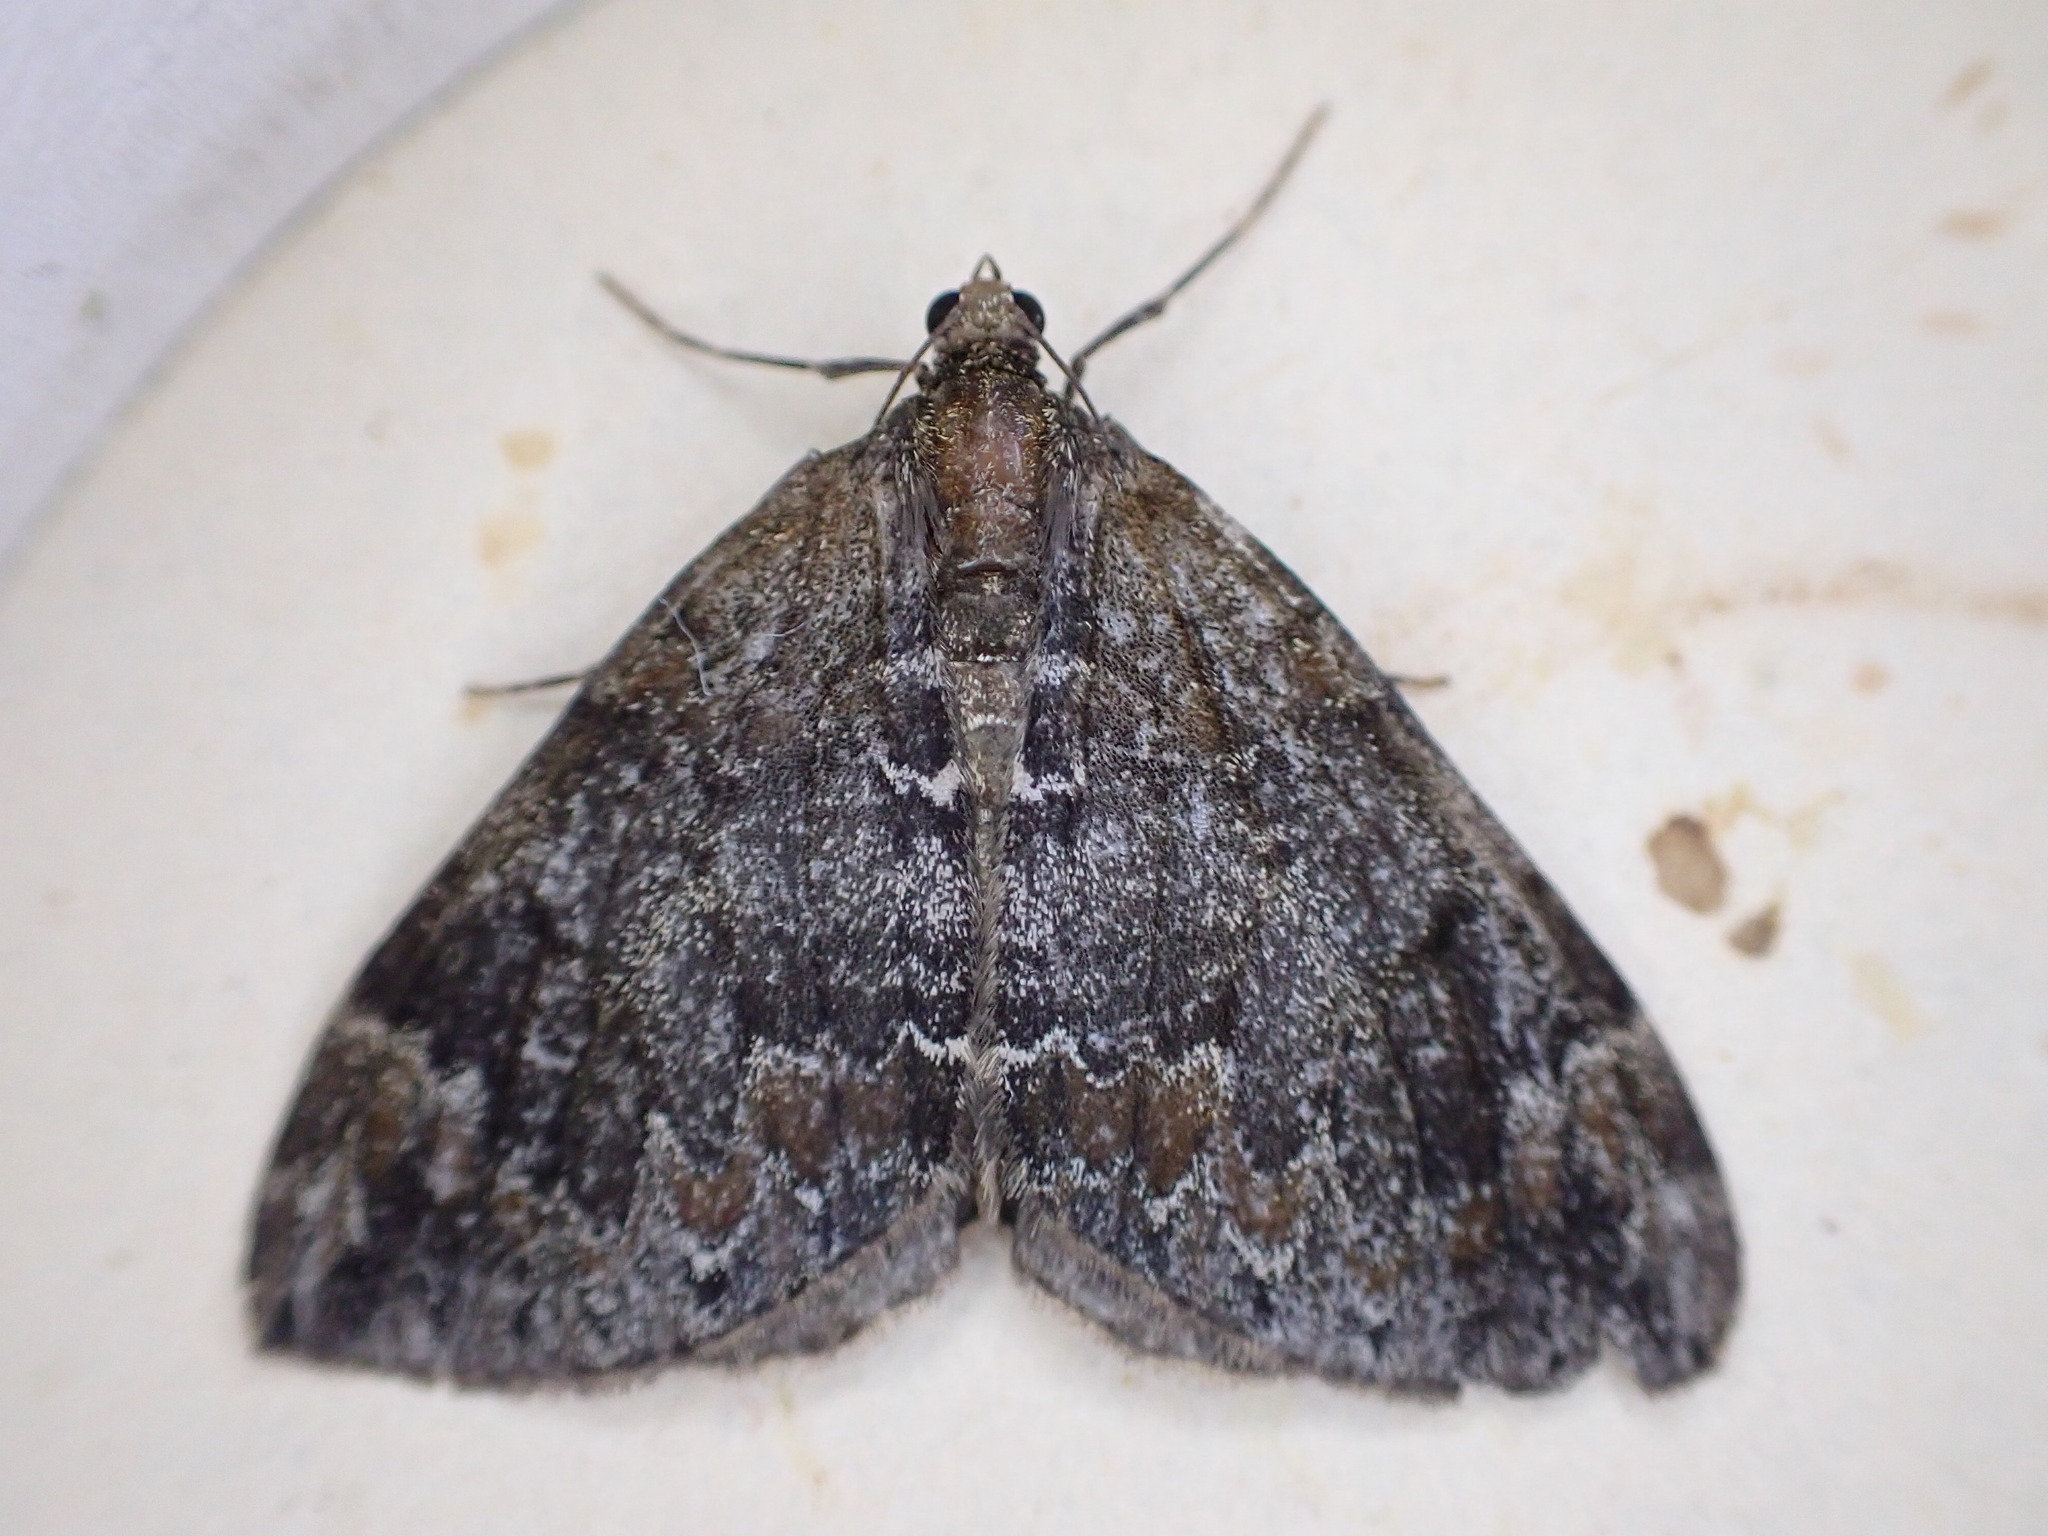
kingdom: Animalia
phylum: Arthropoda
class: Insecta
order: Lepidoptera
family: Geometridae
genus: Dysstroma
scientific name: Dysstroma truncata
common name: Common marbled carpet
